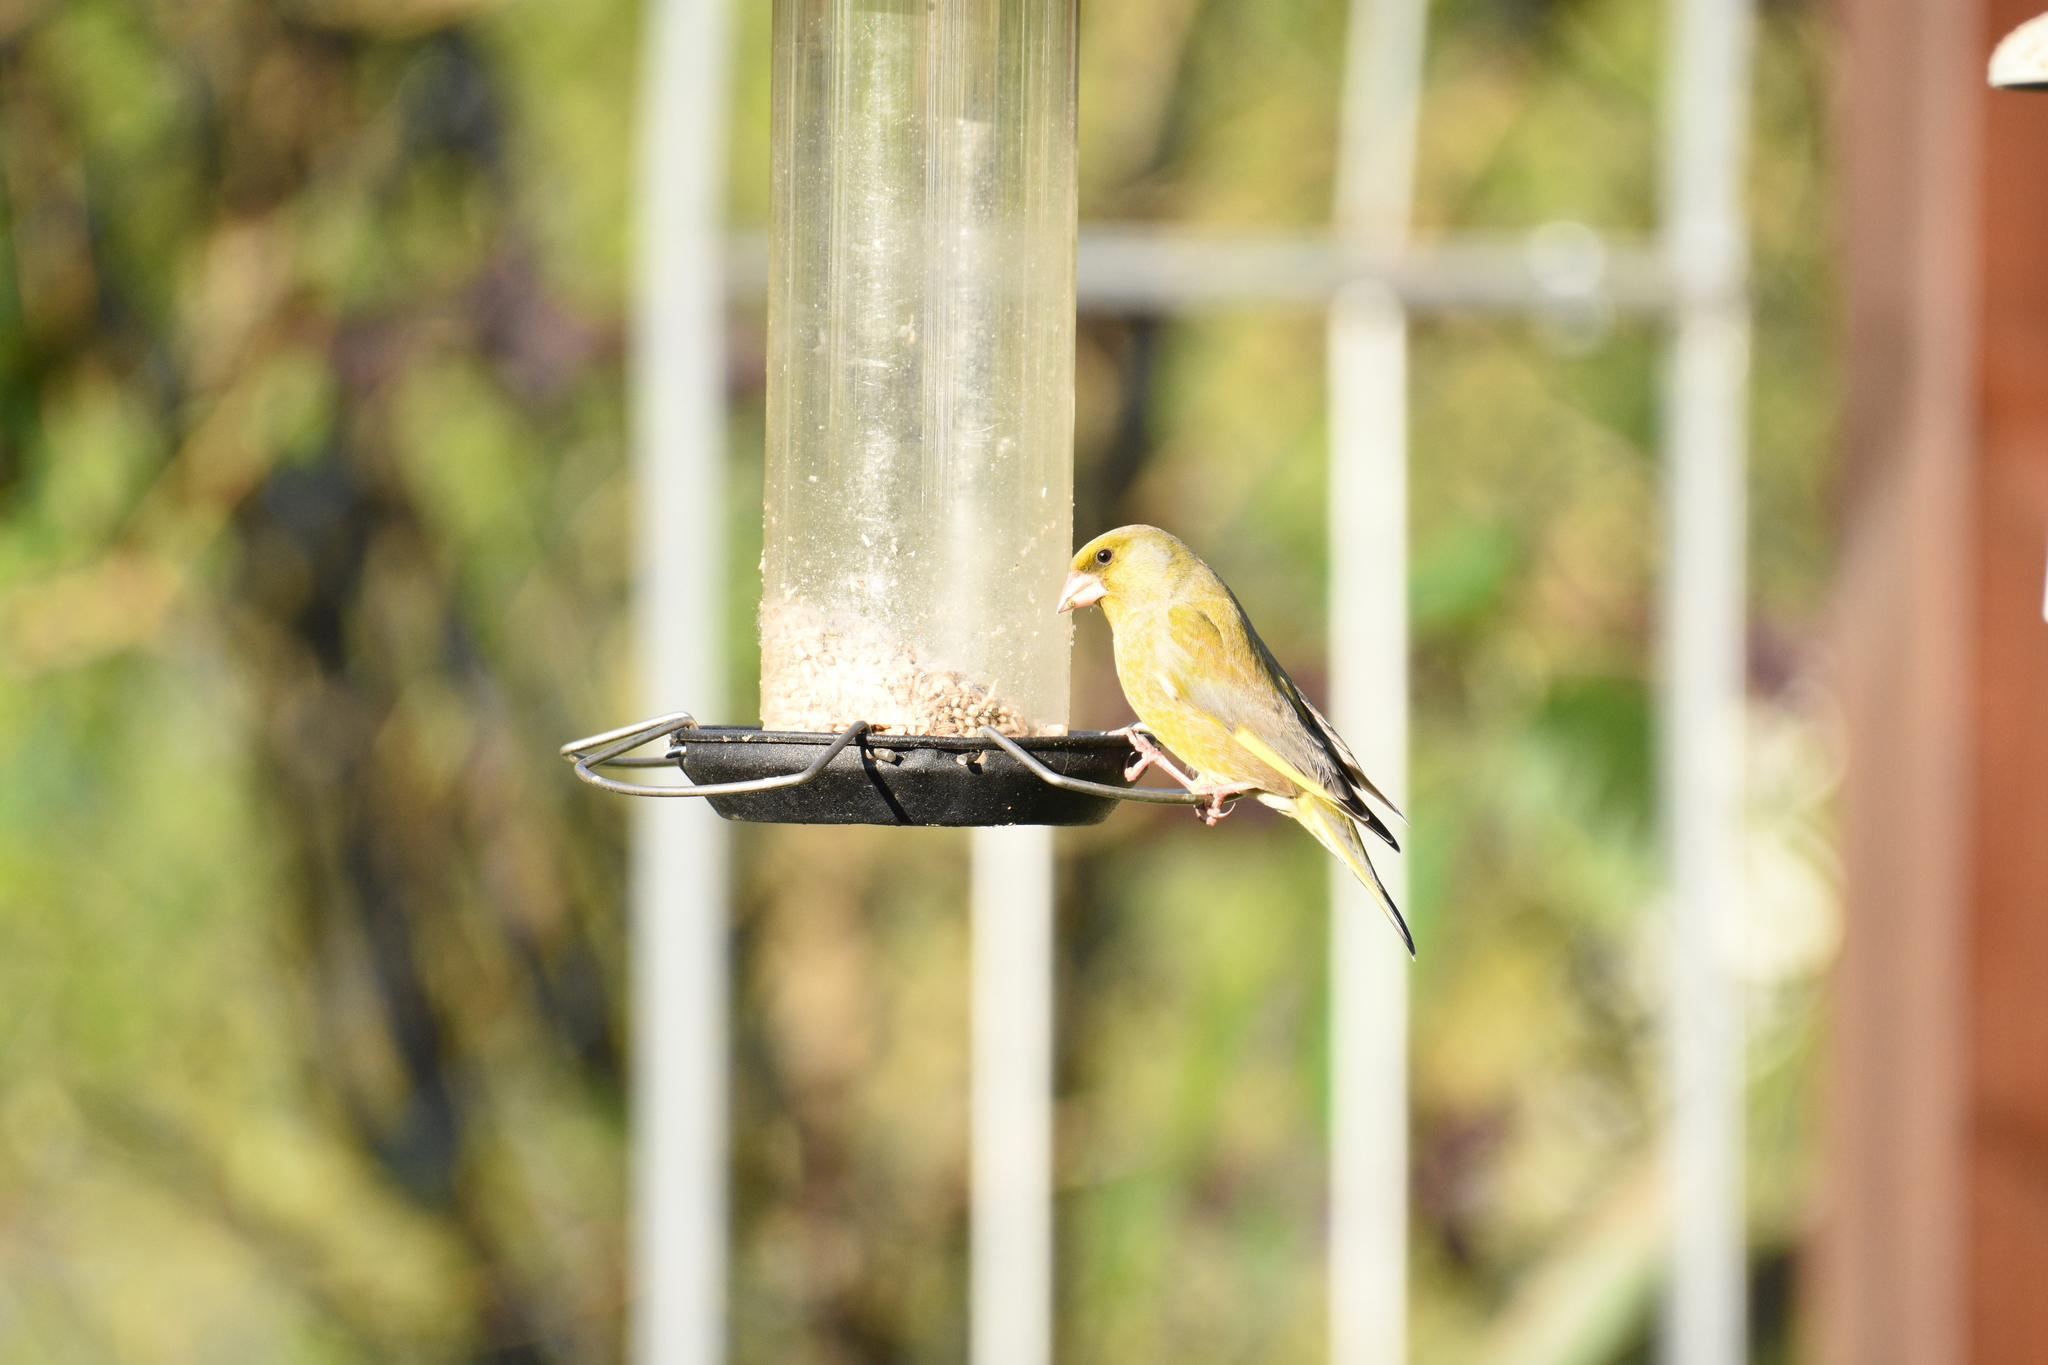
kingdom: Plantae
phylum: Tracheophyta
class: Liliopsida
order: Poales
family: Poaceae
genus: Chloris
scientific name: Chloris chloris
